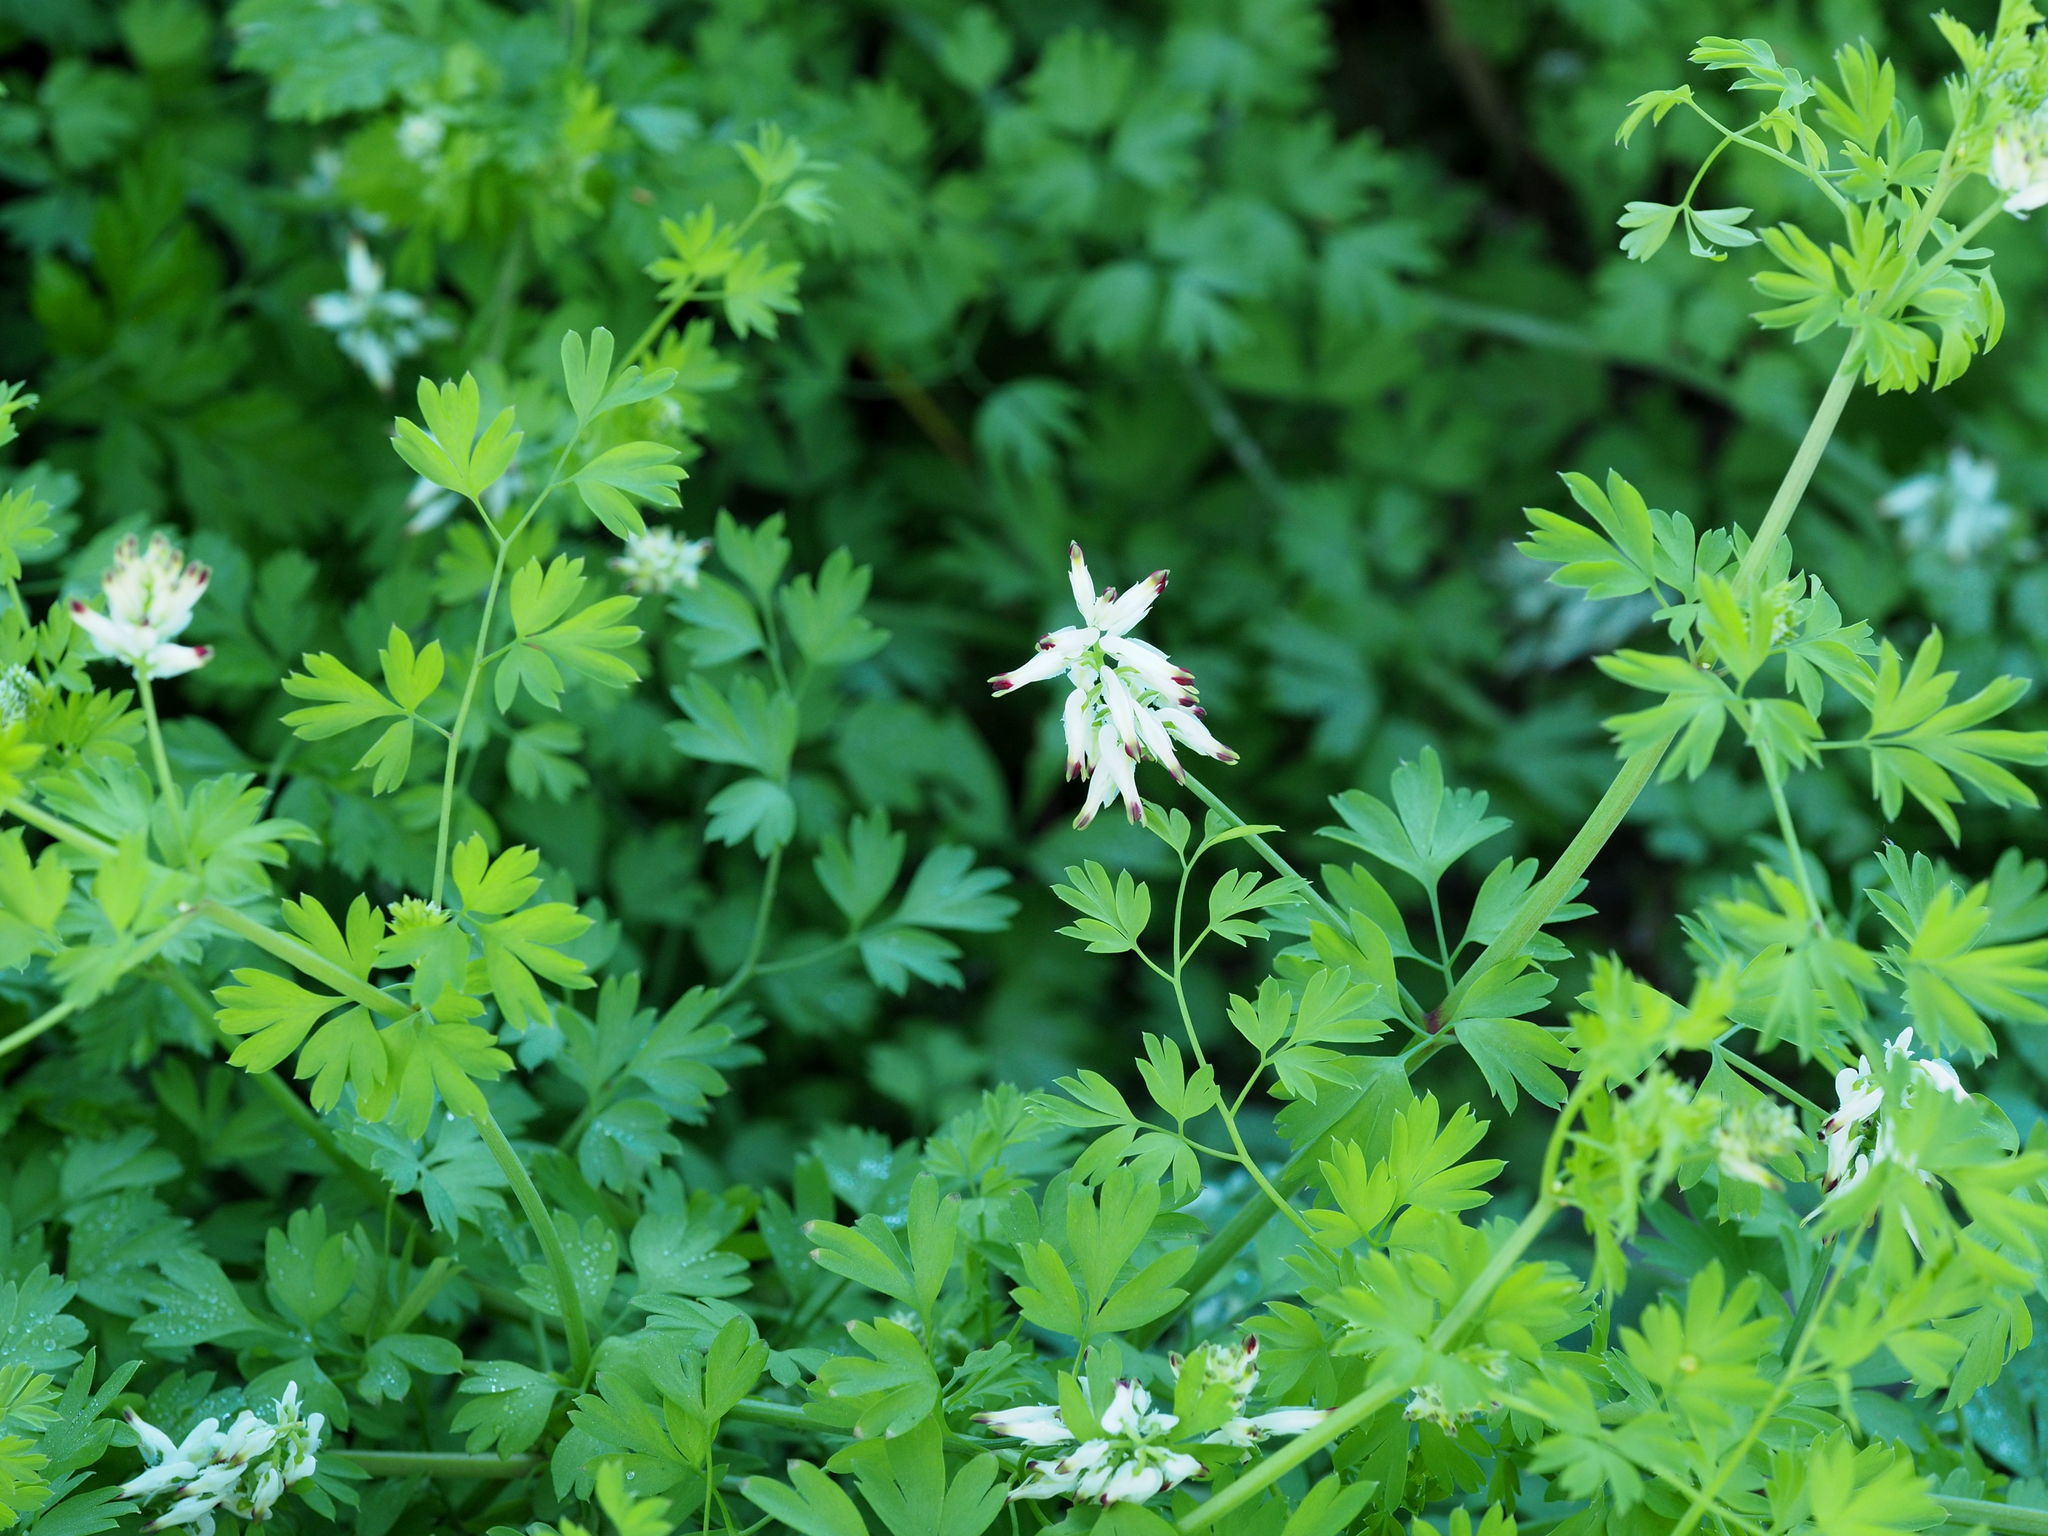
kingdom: Plantae
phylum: Tracheophyta
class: Magnoliopsida
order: Ranunculales
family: Papaveraceae
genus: Fumaria
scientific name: Fumaria capreolata
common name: White ramping-fumitory
